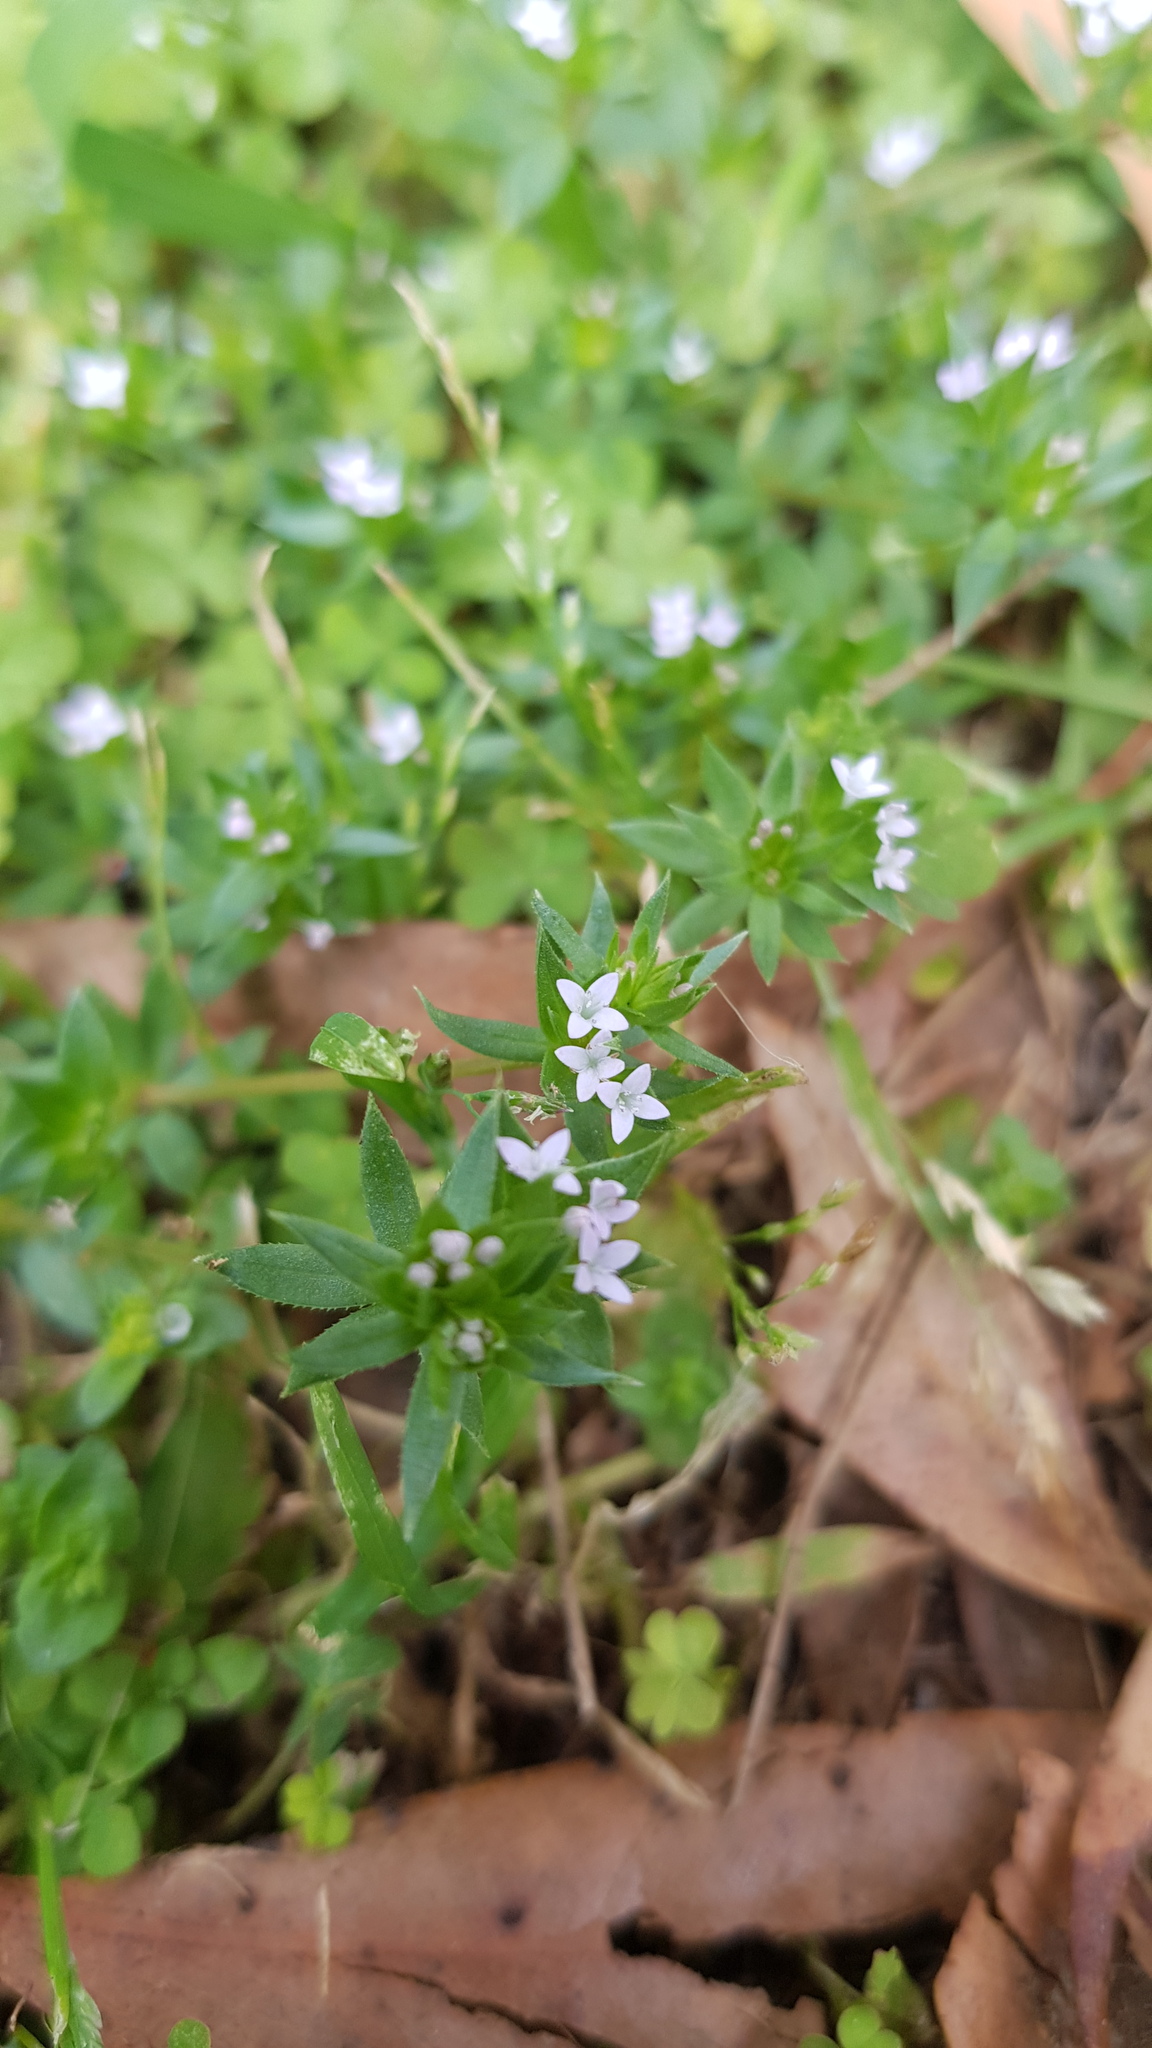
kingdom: Plantae
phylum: Tracheophyta
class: Magnoliopsida
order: Gentianales
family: Rubiaceae
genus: Sherardia
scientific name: Sherardia arvensis
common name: Field madder
